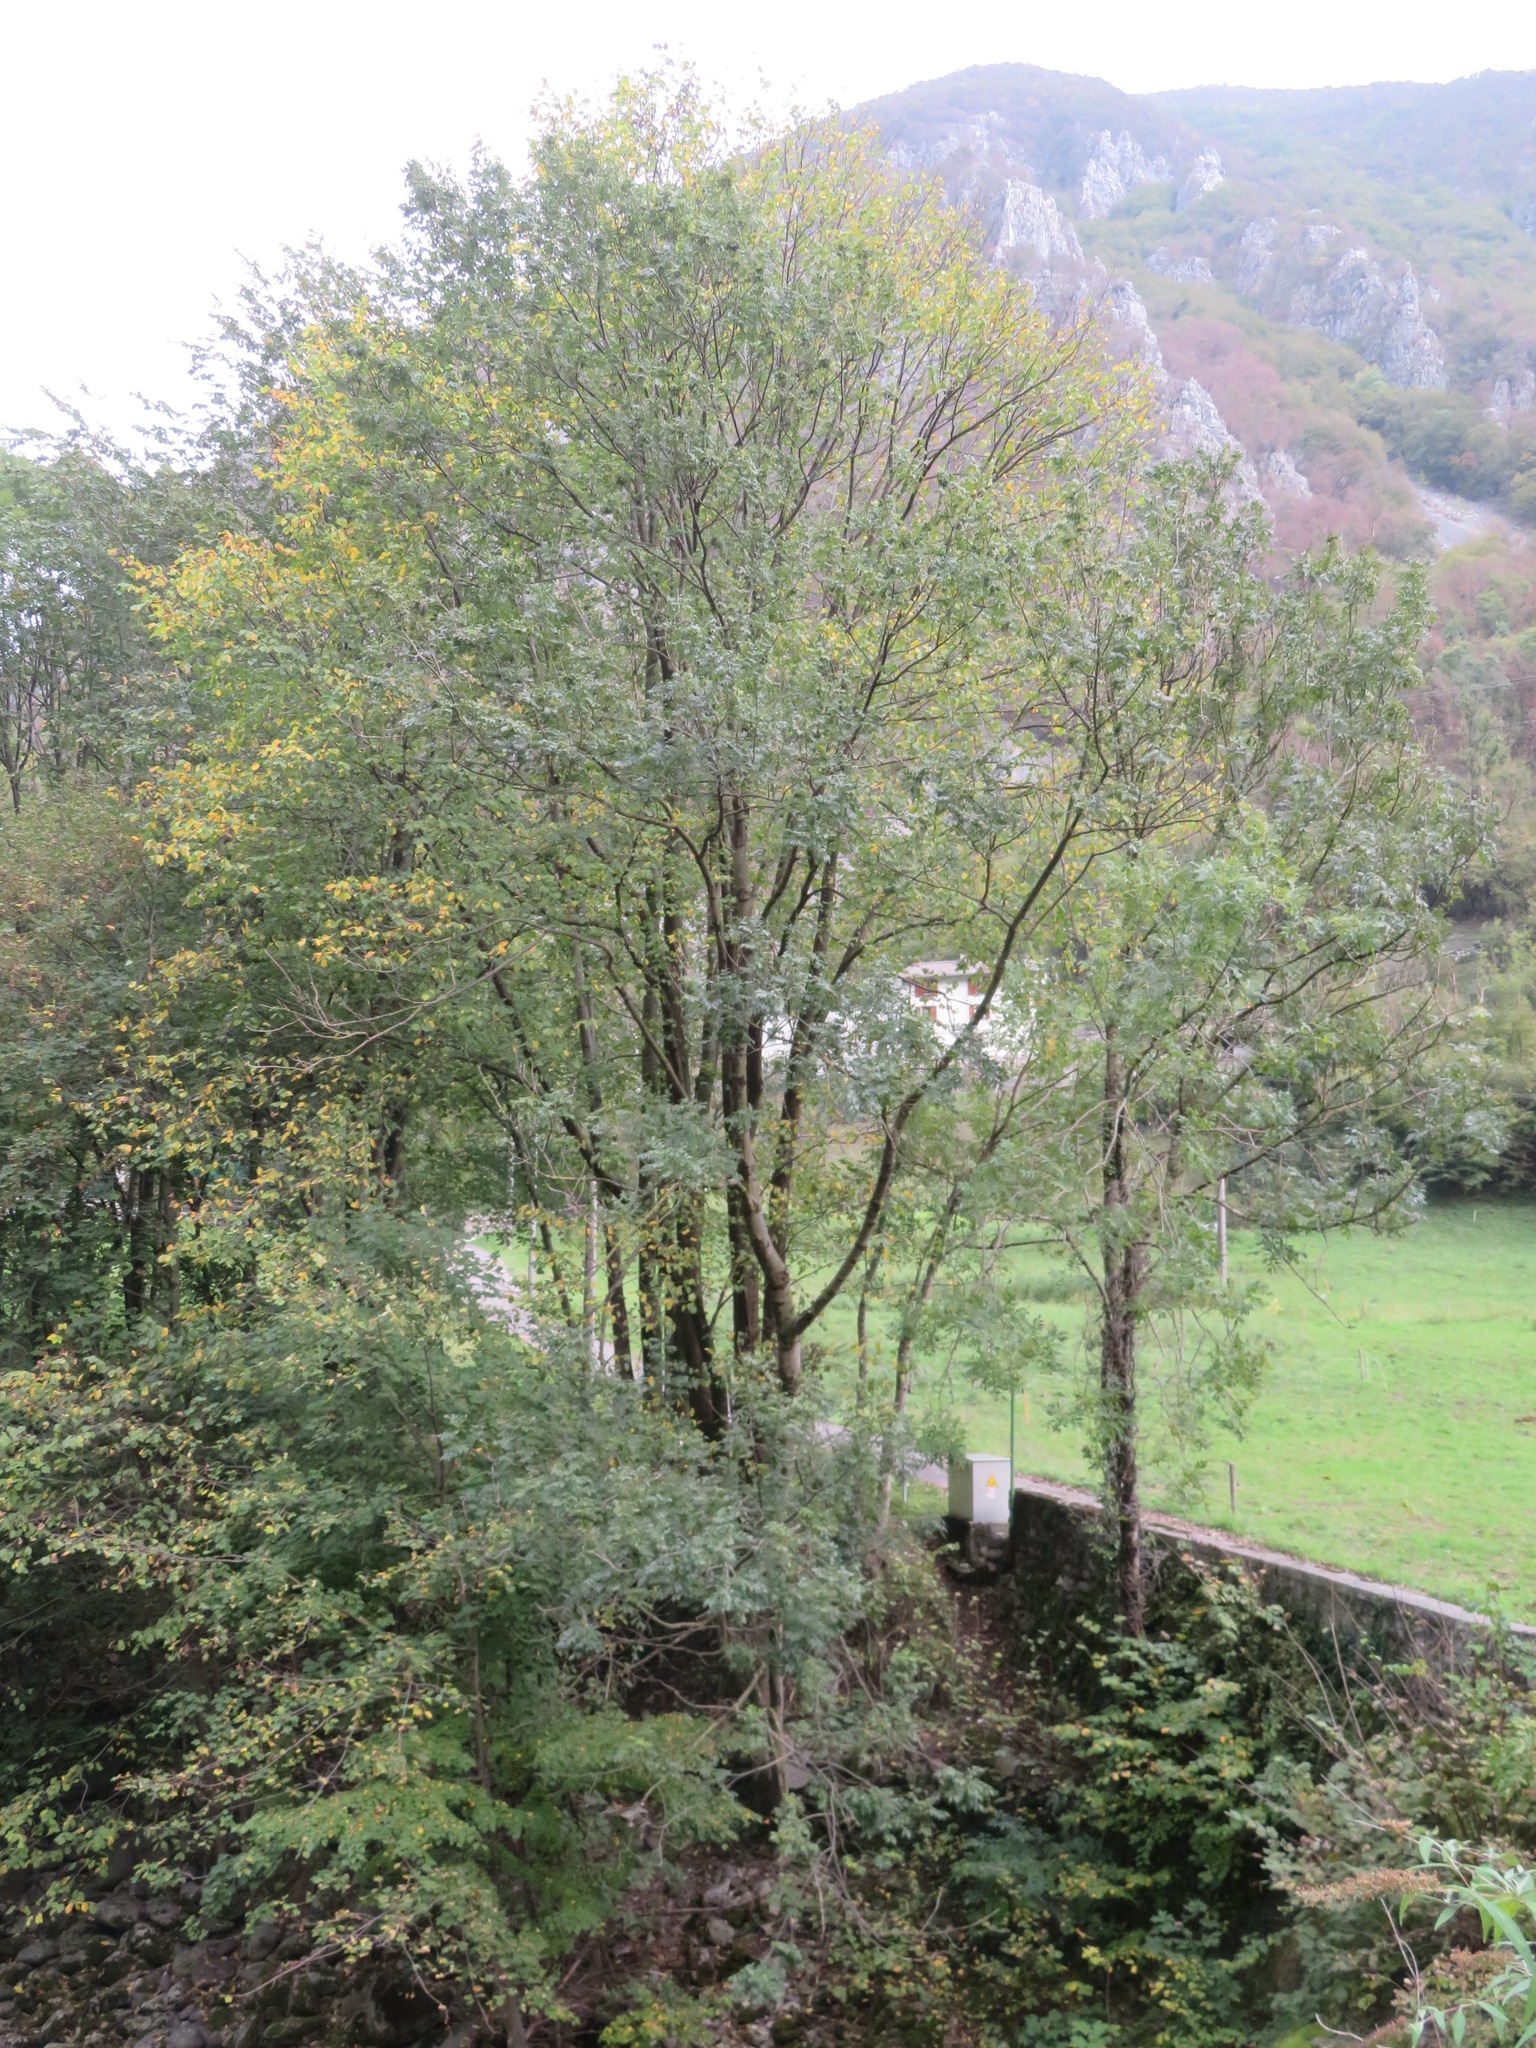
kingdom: Plantae
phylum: Tracheophyta
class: Magnoliopsida
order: Lamiales
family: Oleaceae
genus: Fraxinus
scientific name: Fraxinus excelsior
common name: European ash
